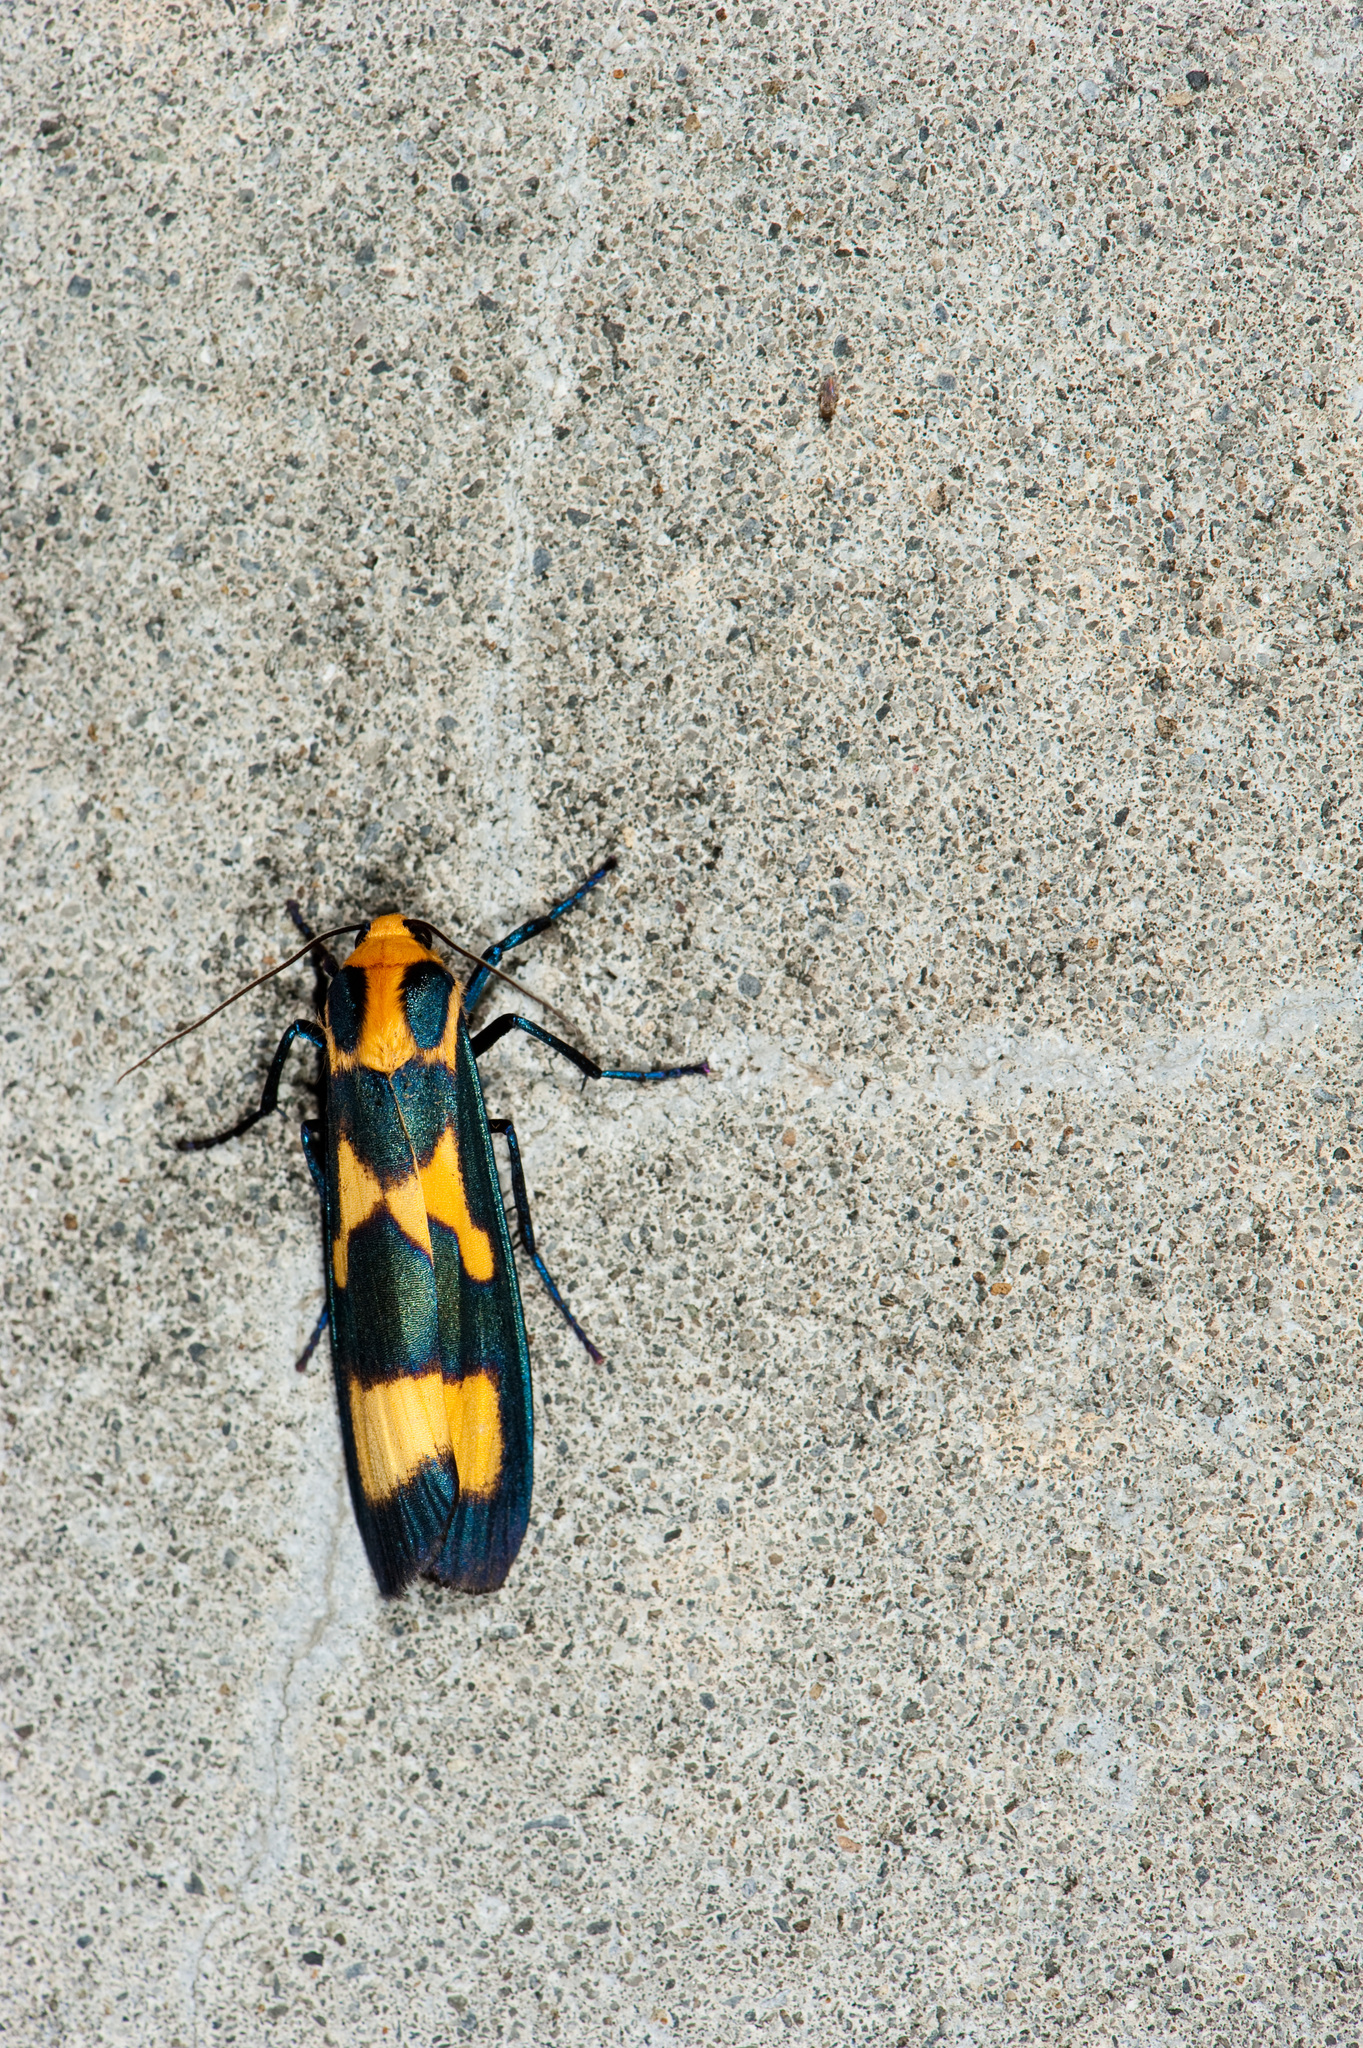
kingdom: Animalia
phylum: Arthropoda
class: Insecta
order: Lepidoptera
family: Erebidae
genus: Chrysaeglia
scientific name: Chrysaeglia magnifica
